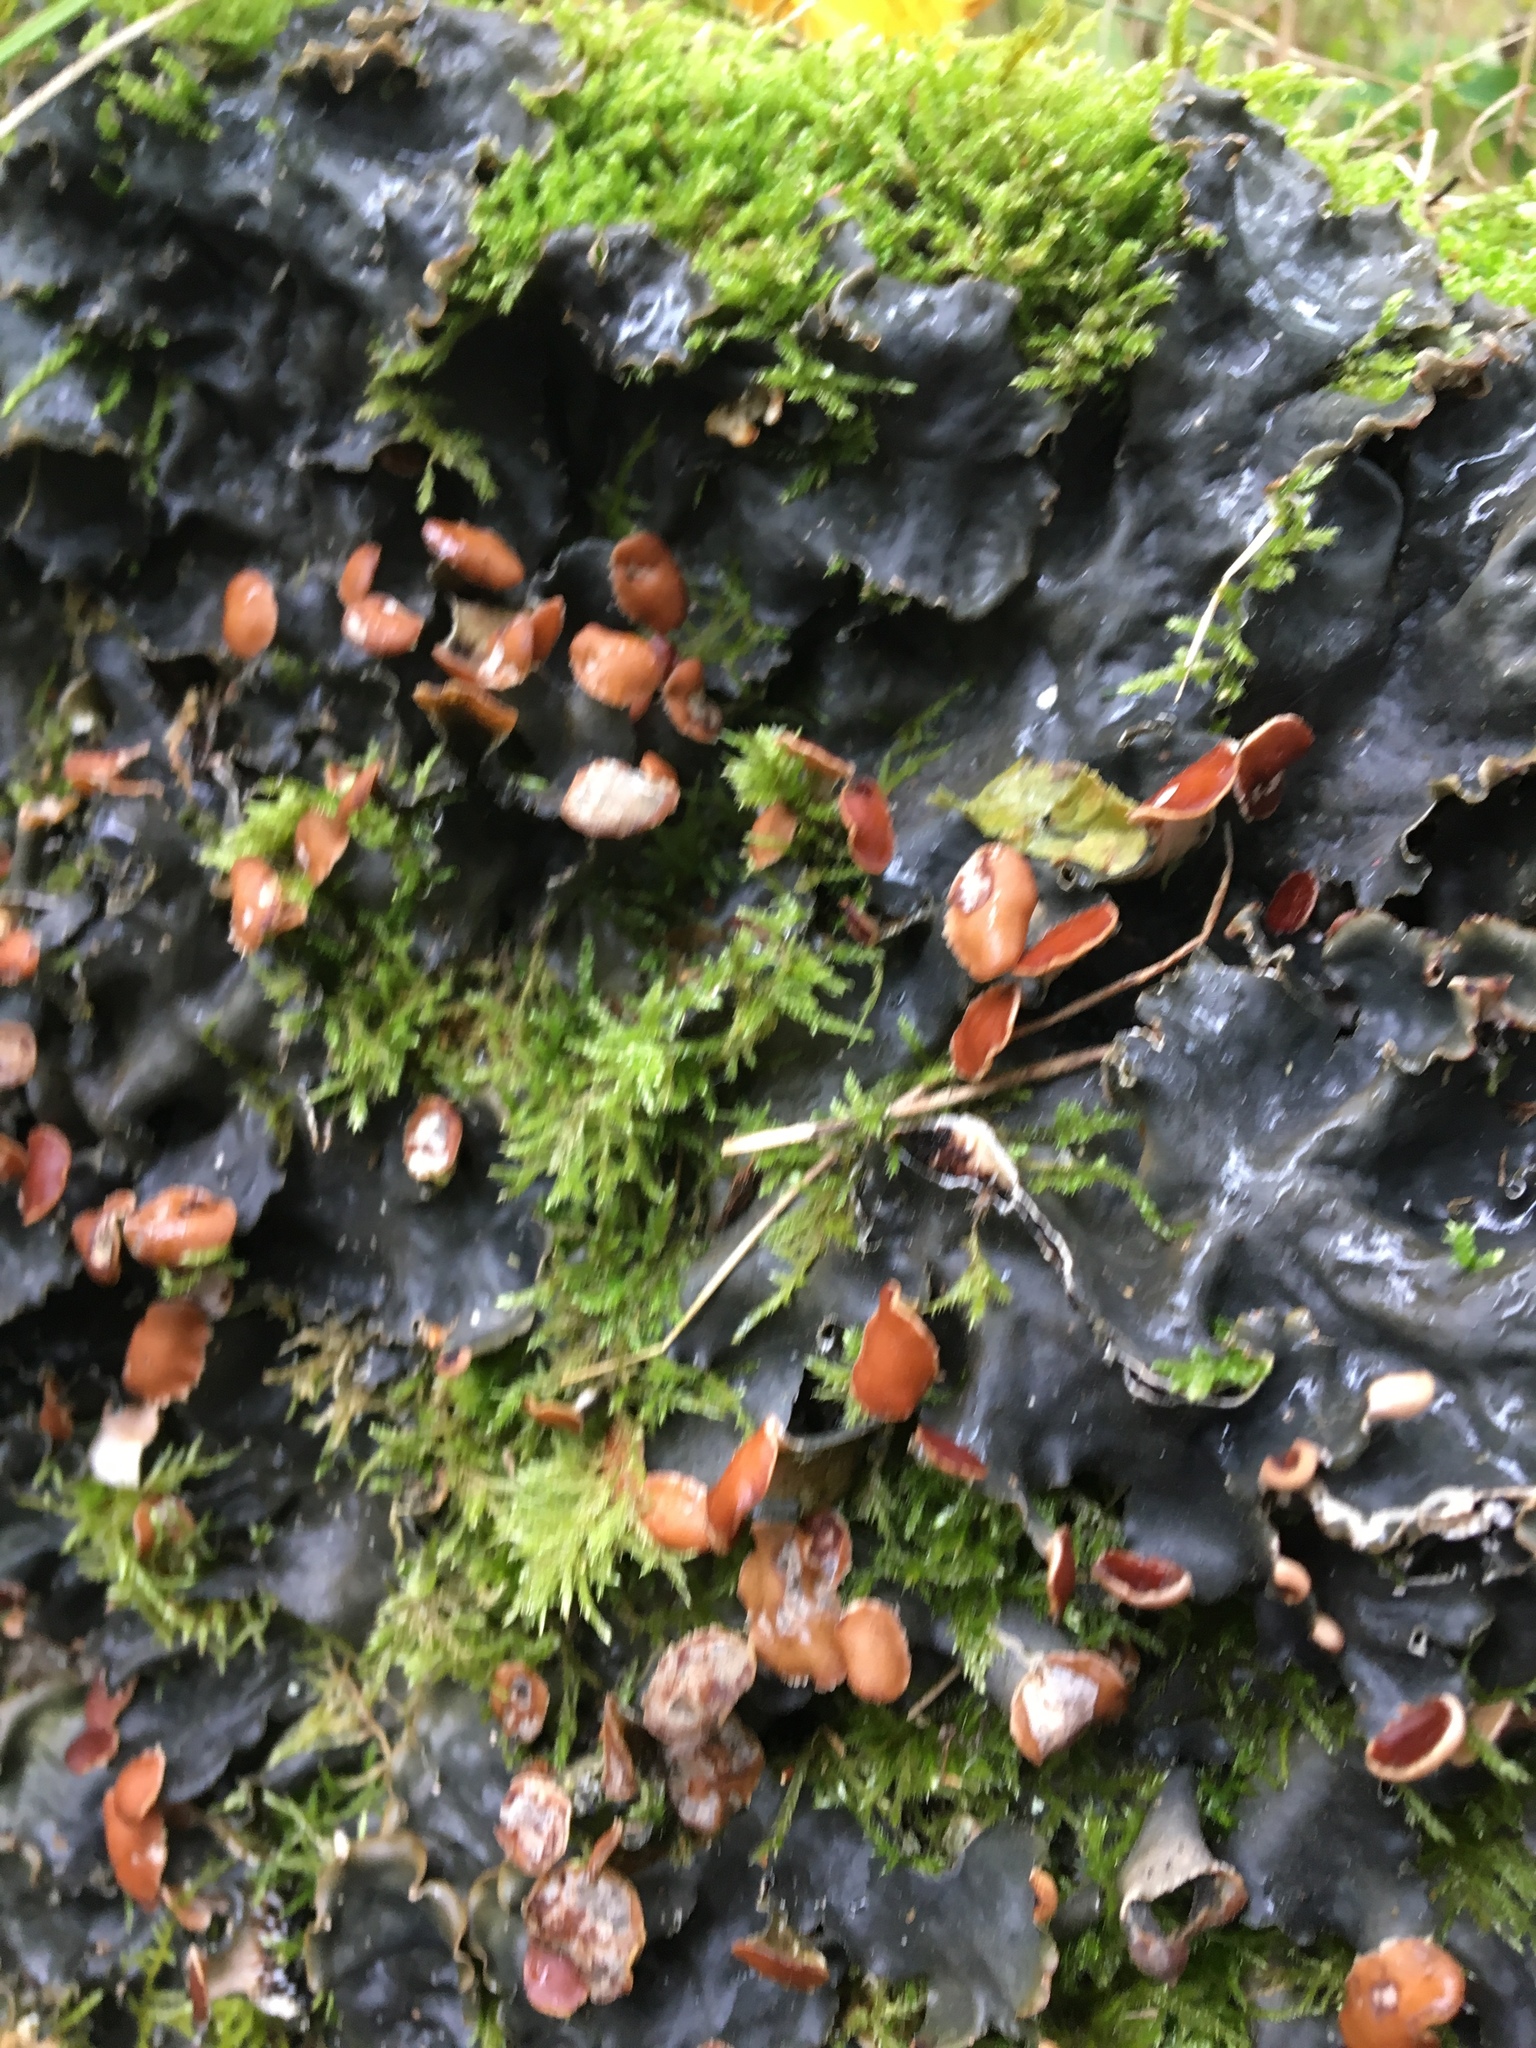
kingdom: Fungi
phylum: Ascomycota
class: Lecanoromycetes
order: Peltigerales
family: Peltigeraceae
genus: Peltigera
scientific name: Peltigera horizontalis
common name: Flat fruited pelt
